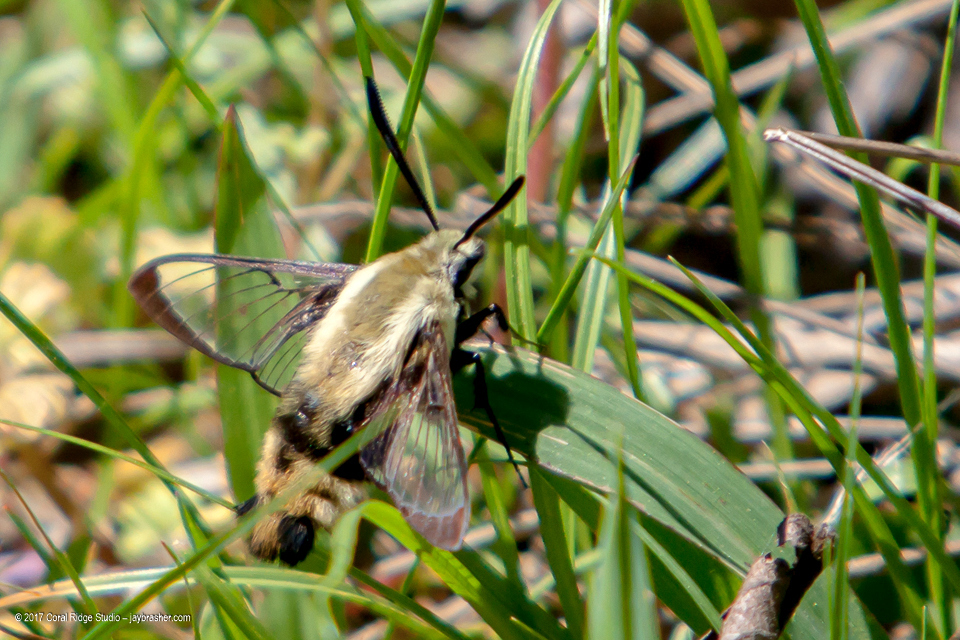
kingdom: Animalia
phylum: Arthropoda
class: Insecta
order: Lepidoptera
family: Sphingidae
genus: Hemaris
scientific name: Hemaris diffinis
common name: Bumblebee moth
